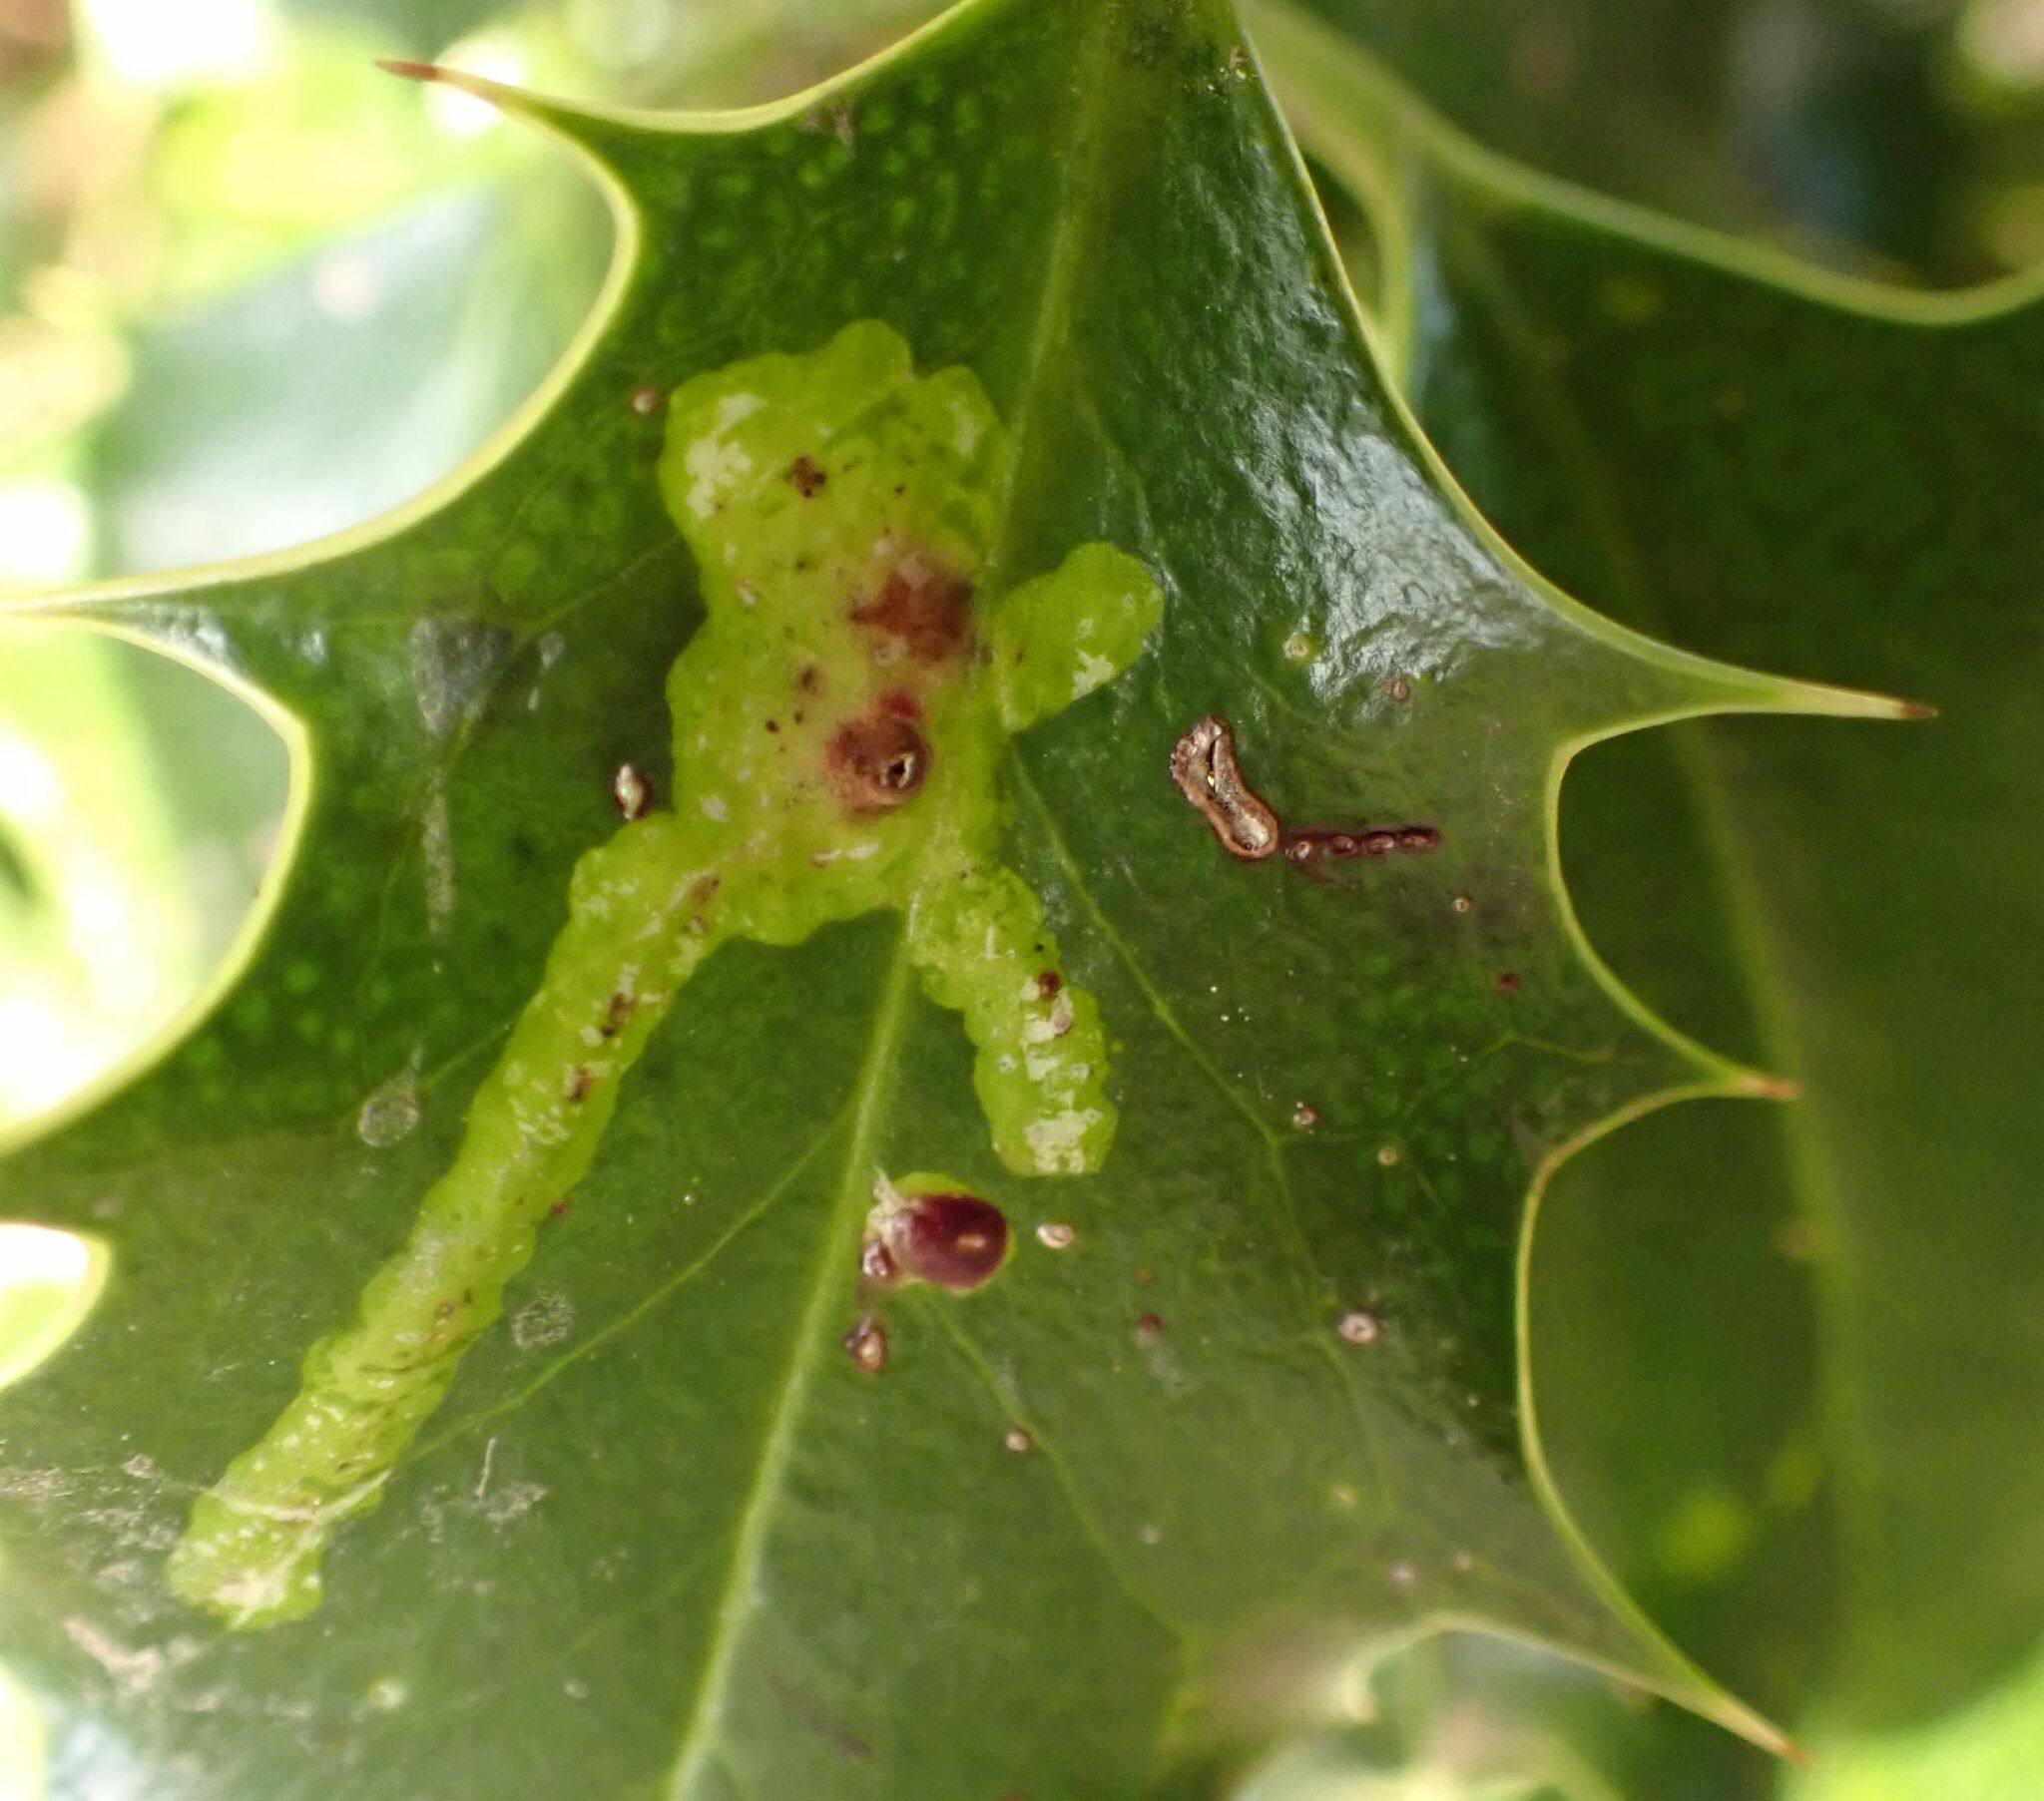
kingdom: Animalia
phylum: Arthropoda
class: Insecta
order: Diptera
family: Agromyzidae
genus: Phytomyza
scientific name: Phytomyza ilicis
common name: Holly leafminer
